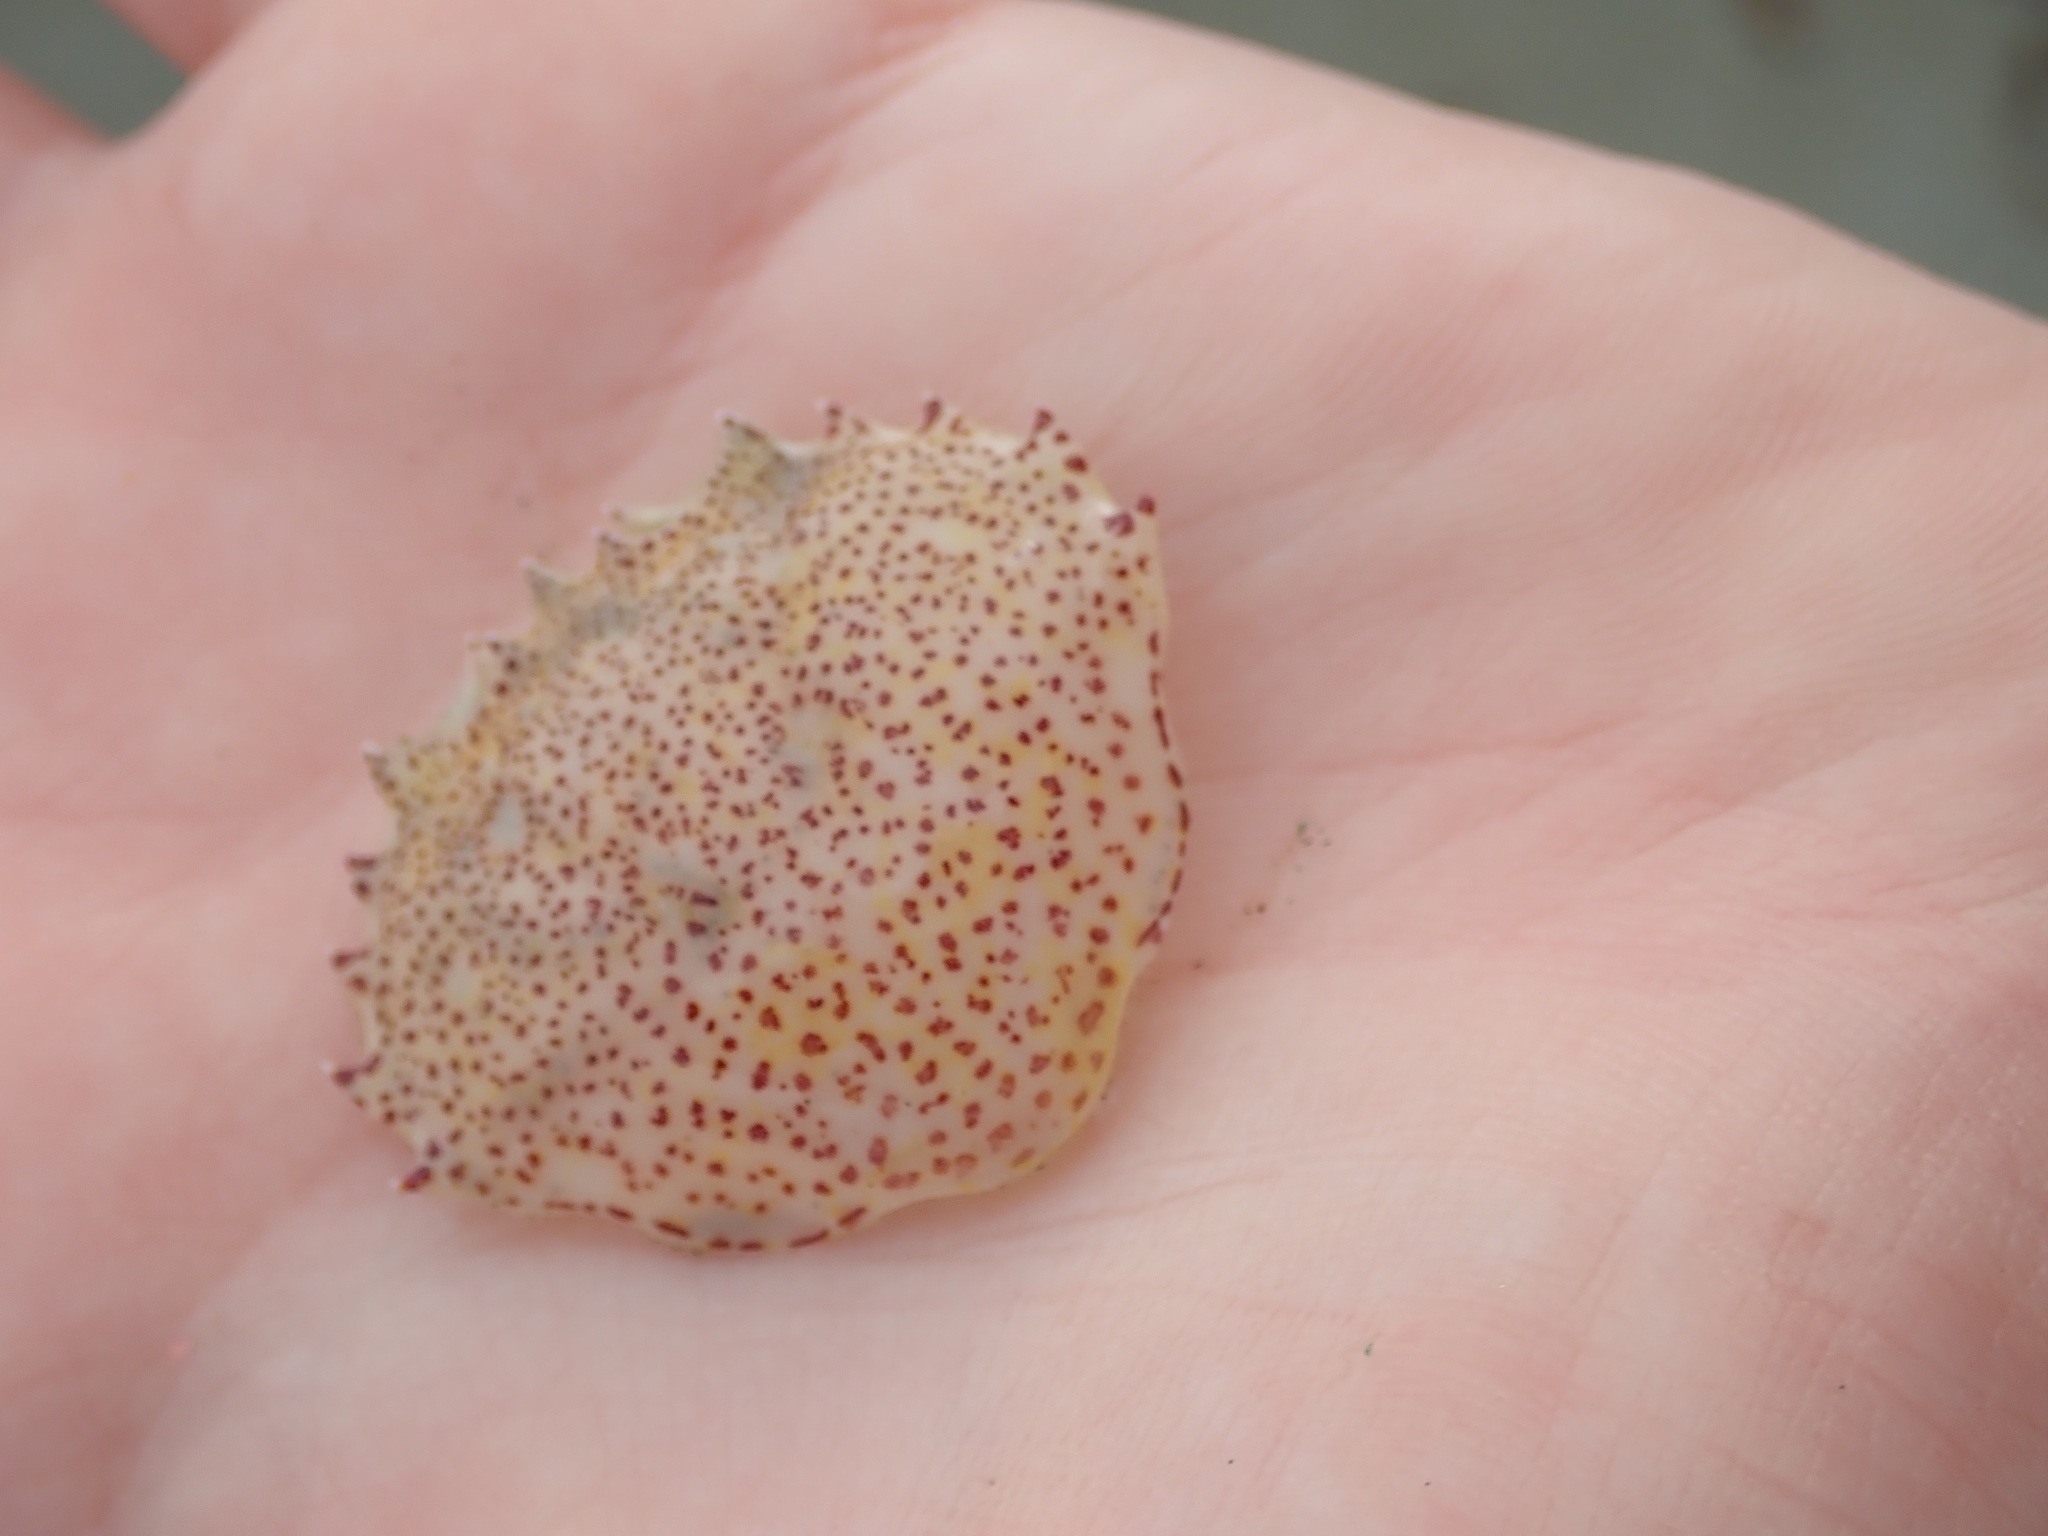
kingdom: Animalia
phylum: Arthropoda
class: Malacostraca
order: Decapoda
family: Ovalipidae
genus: Ovalipes
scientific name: Ovalipes ocellatus
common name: Lady crab
